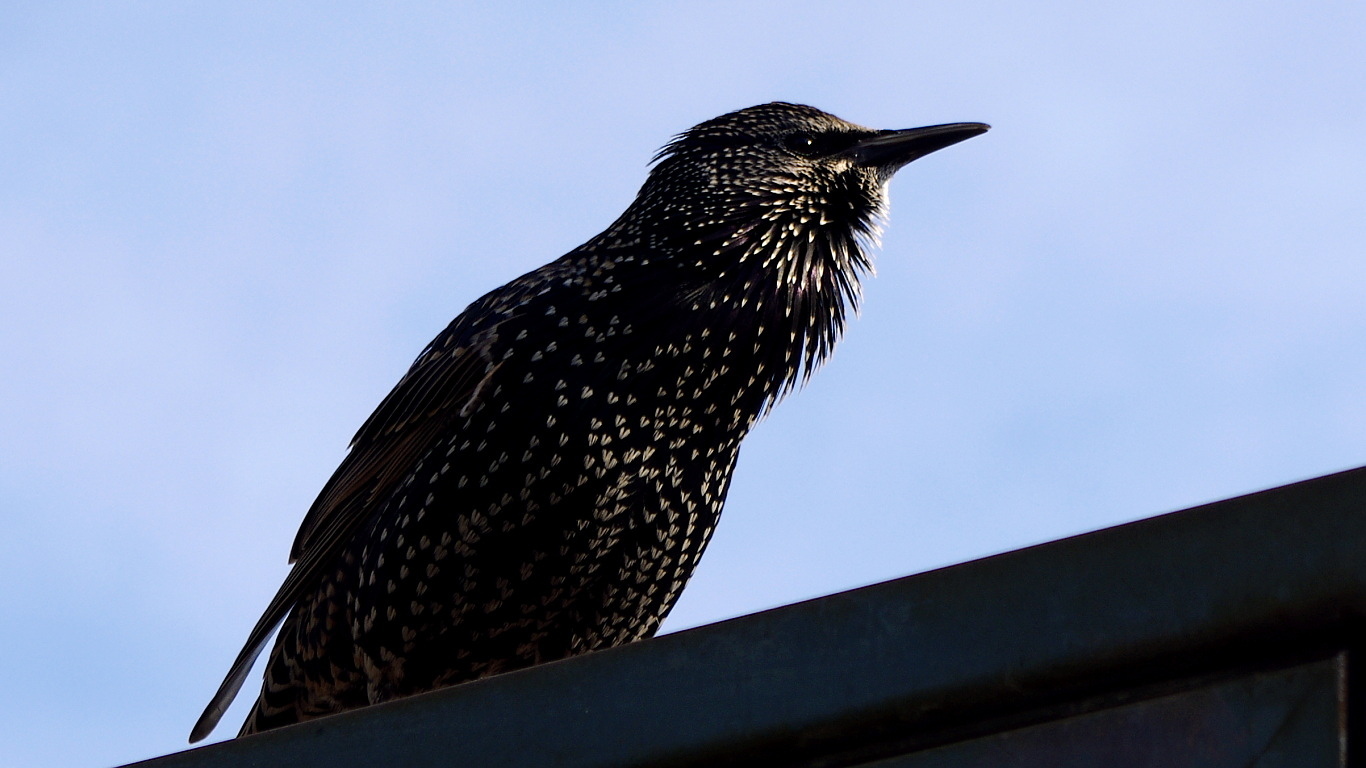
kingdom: Animalia
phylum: Chordata
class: Aves
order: Passeriformes
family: Sturnidae
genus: Sturnus
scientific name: Sturnus vulgaris
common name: Common starling
